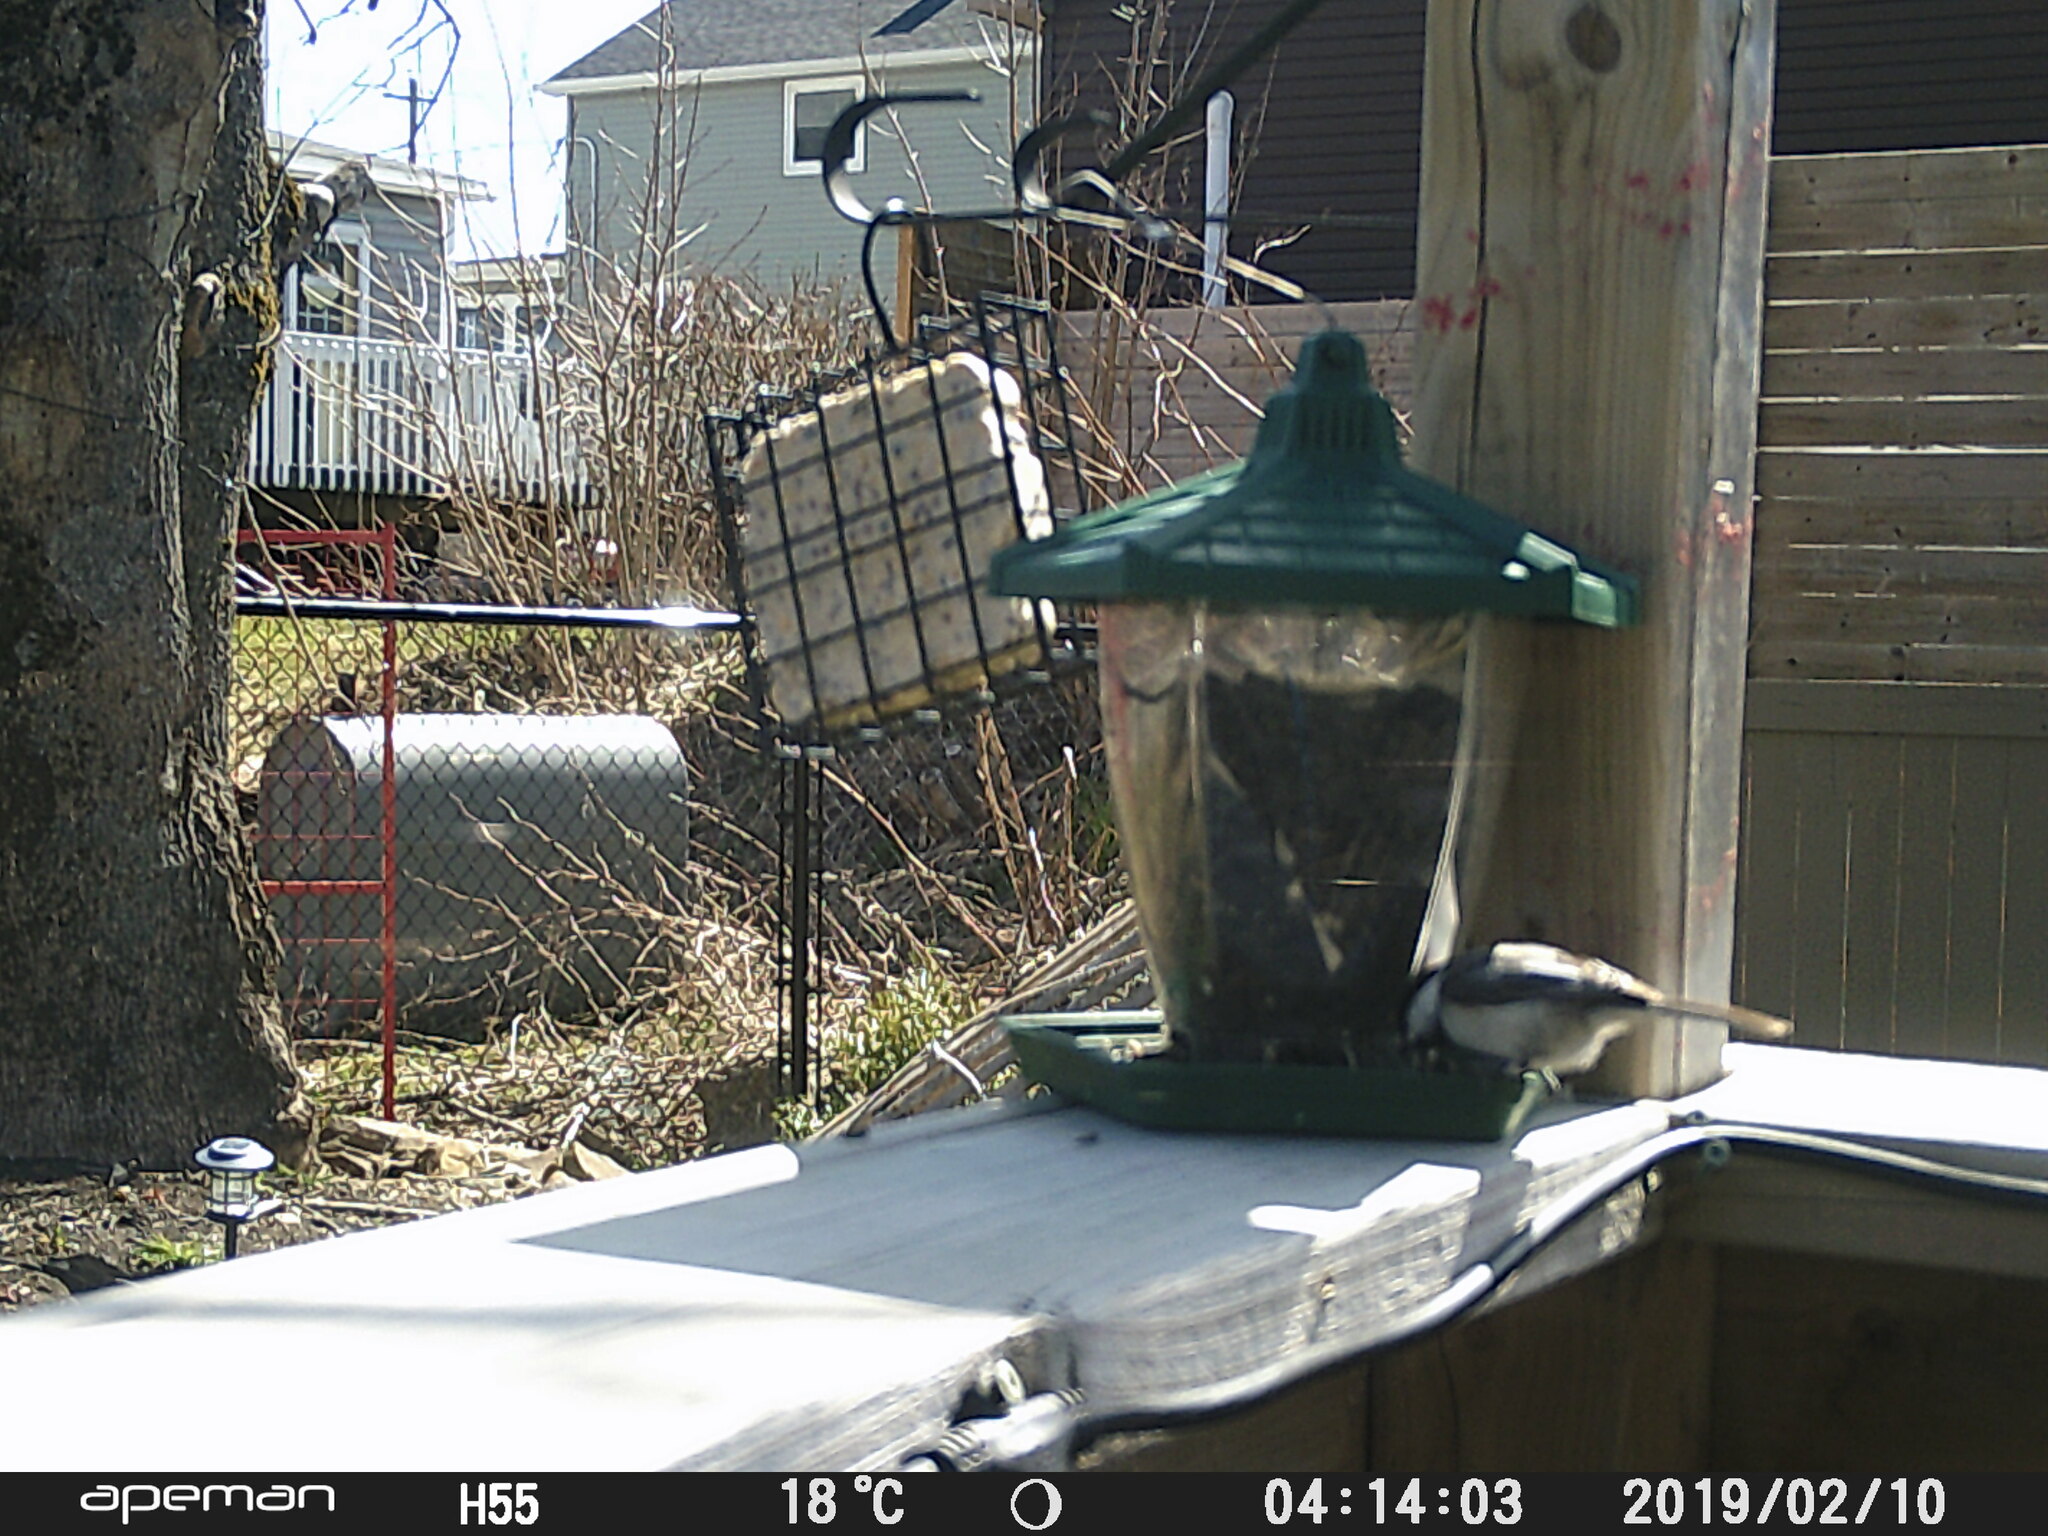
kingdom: Animalia
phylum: Chordata
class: Aves
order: Passeriformes
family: Paridae
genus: Poecile
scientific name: Poecile atricapillus
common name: Black-capped chickadee
